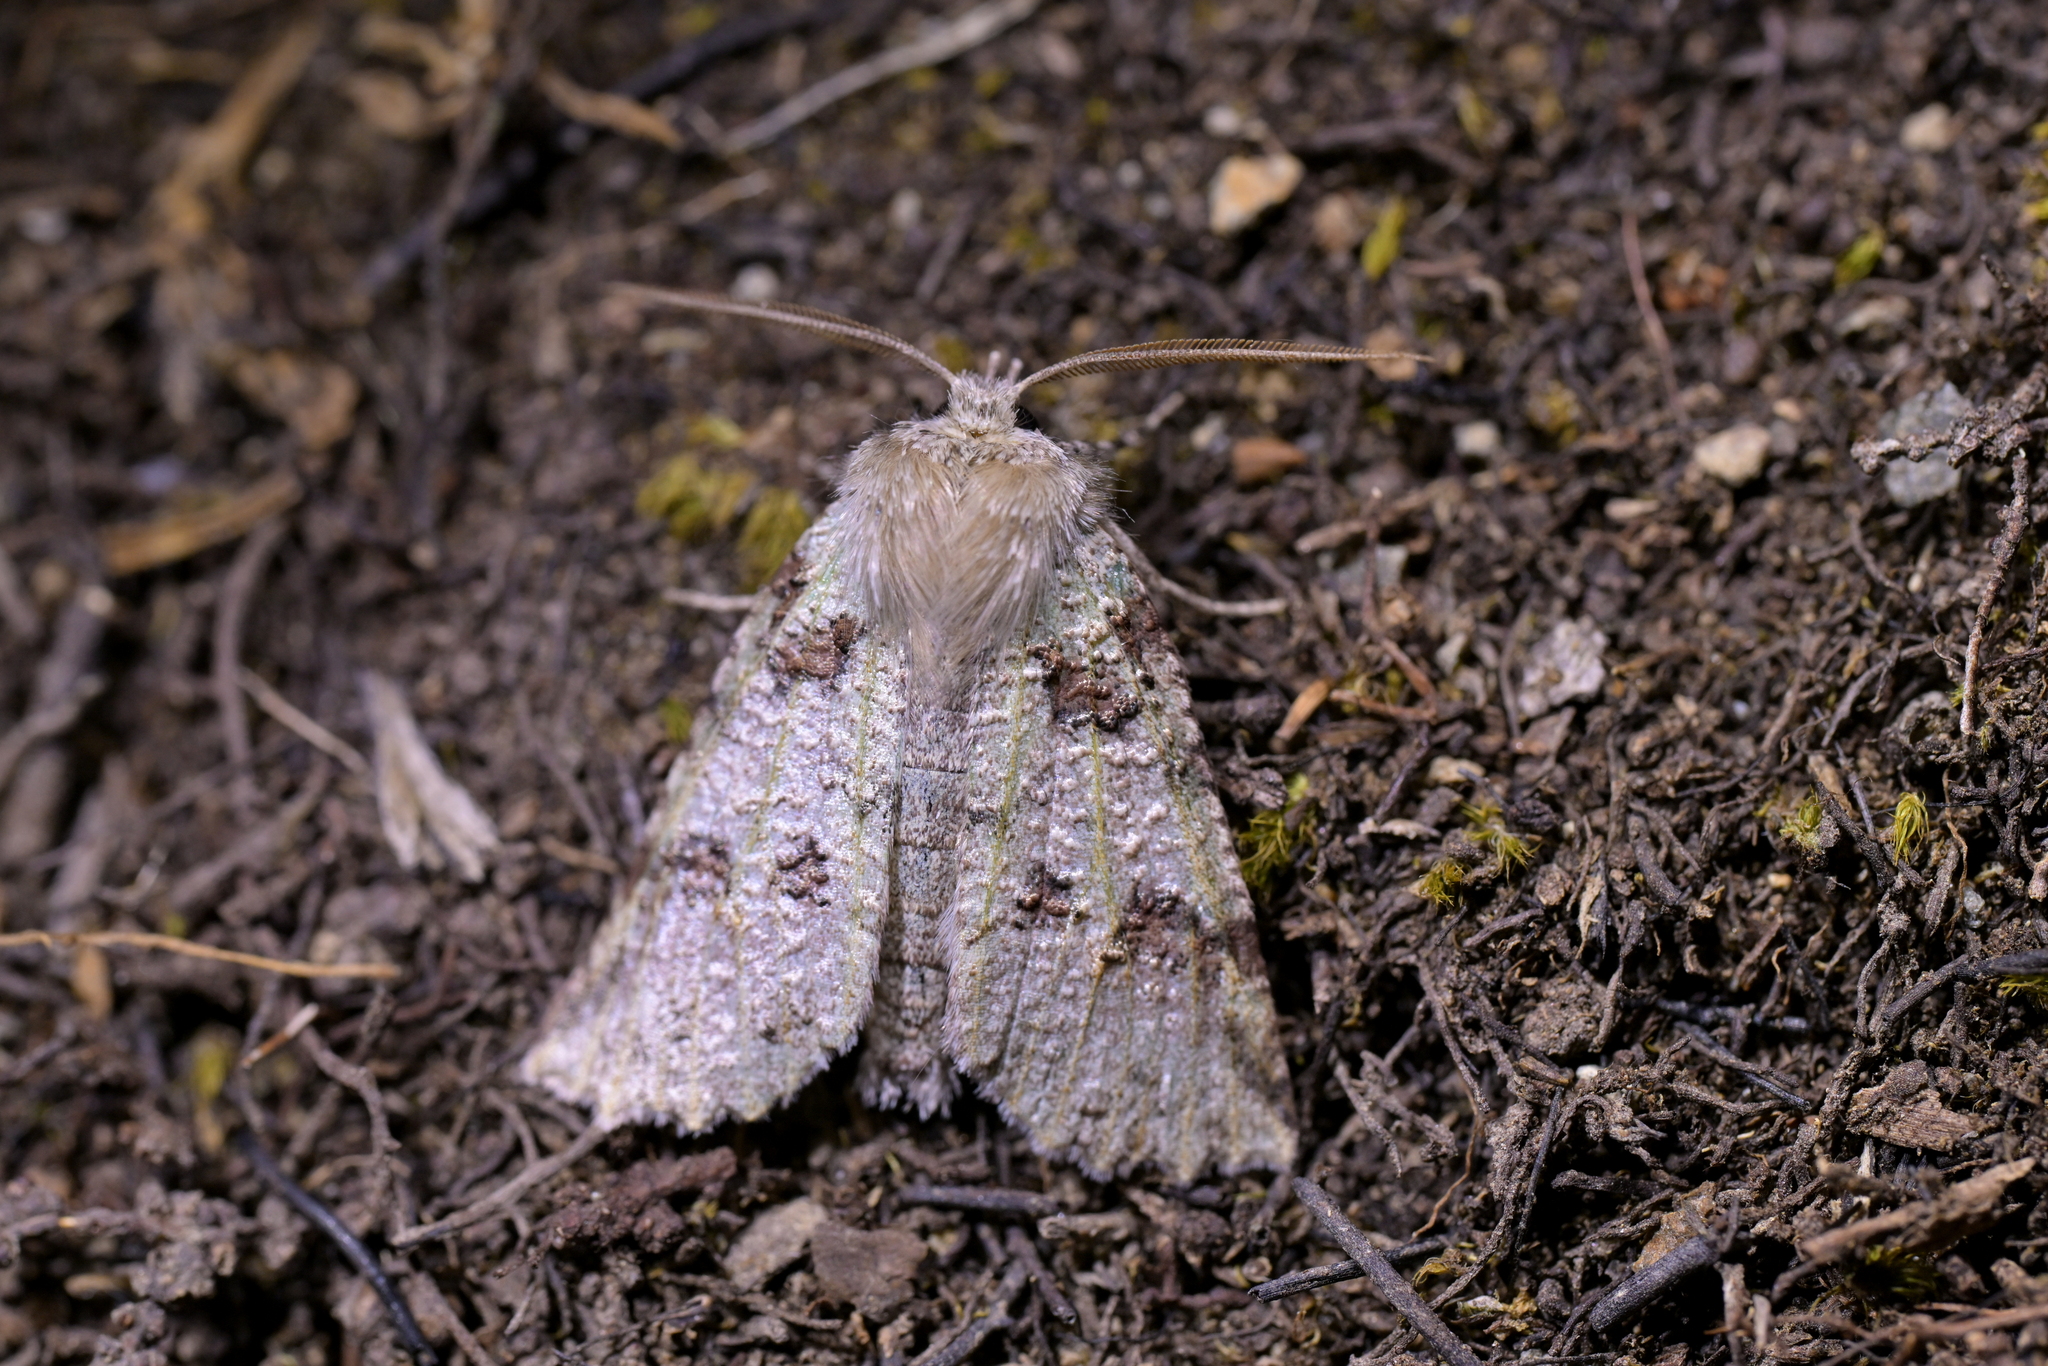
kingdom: Animalia
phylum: Arthropoda
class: Insecta
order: Lepidoptera
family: Geometridae
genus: Declana
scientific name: Declana floccosa
